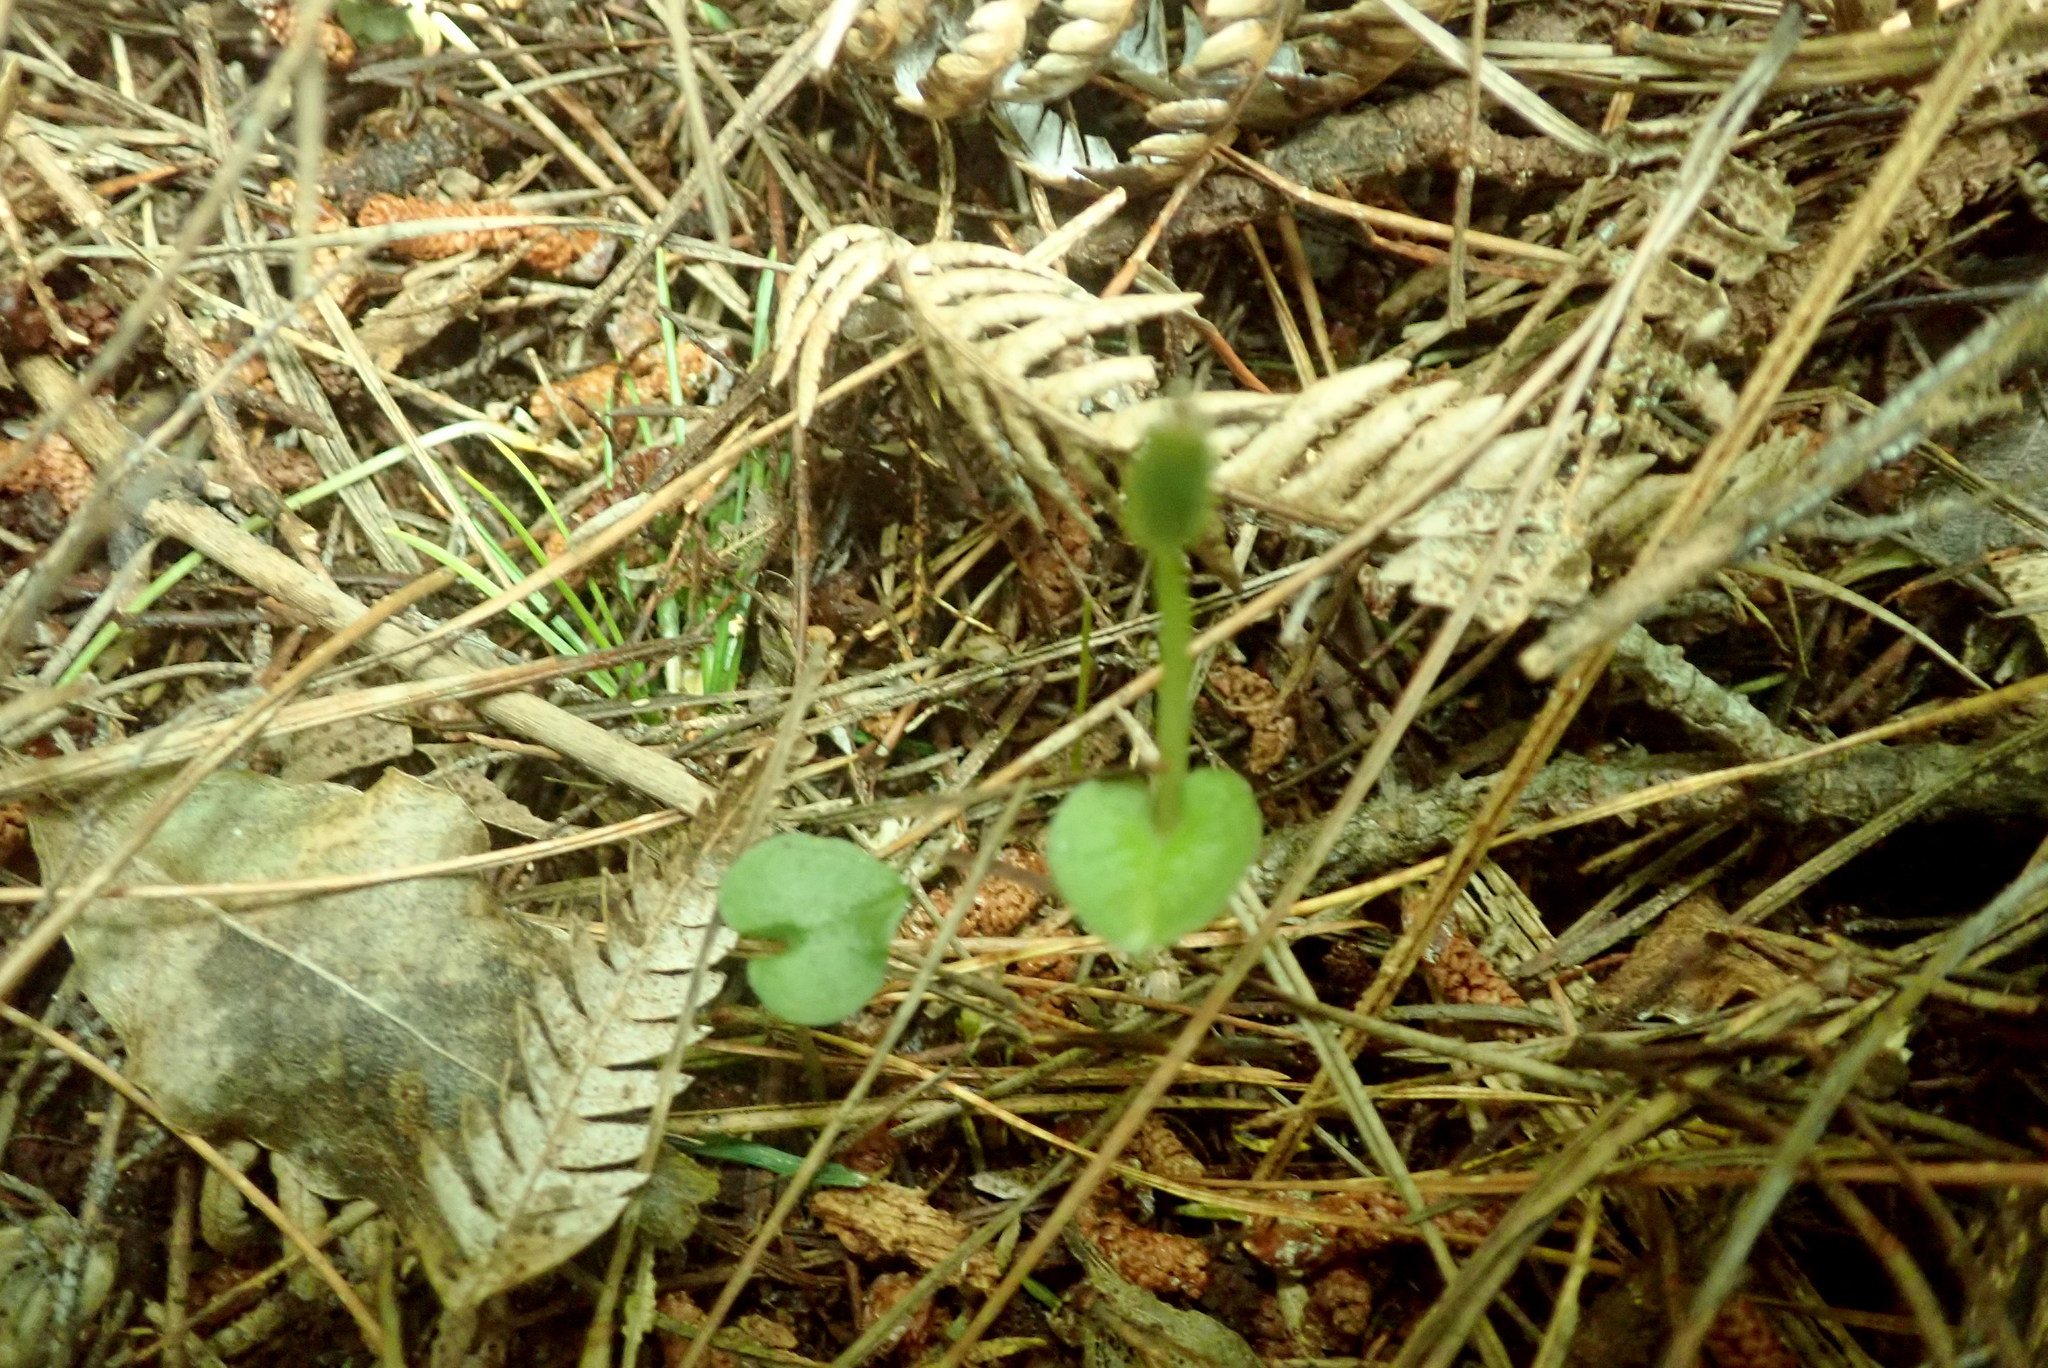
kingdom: Plantae
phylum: Tracheophyta
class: Liliopsida
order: Asparagales
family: Orchidaceae
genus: Corybas
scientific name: Corybas cheesemanii
